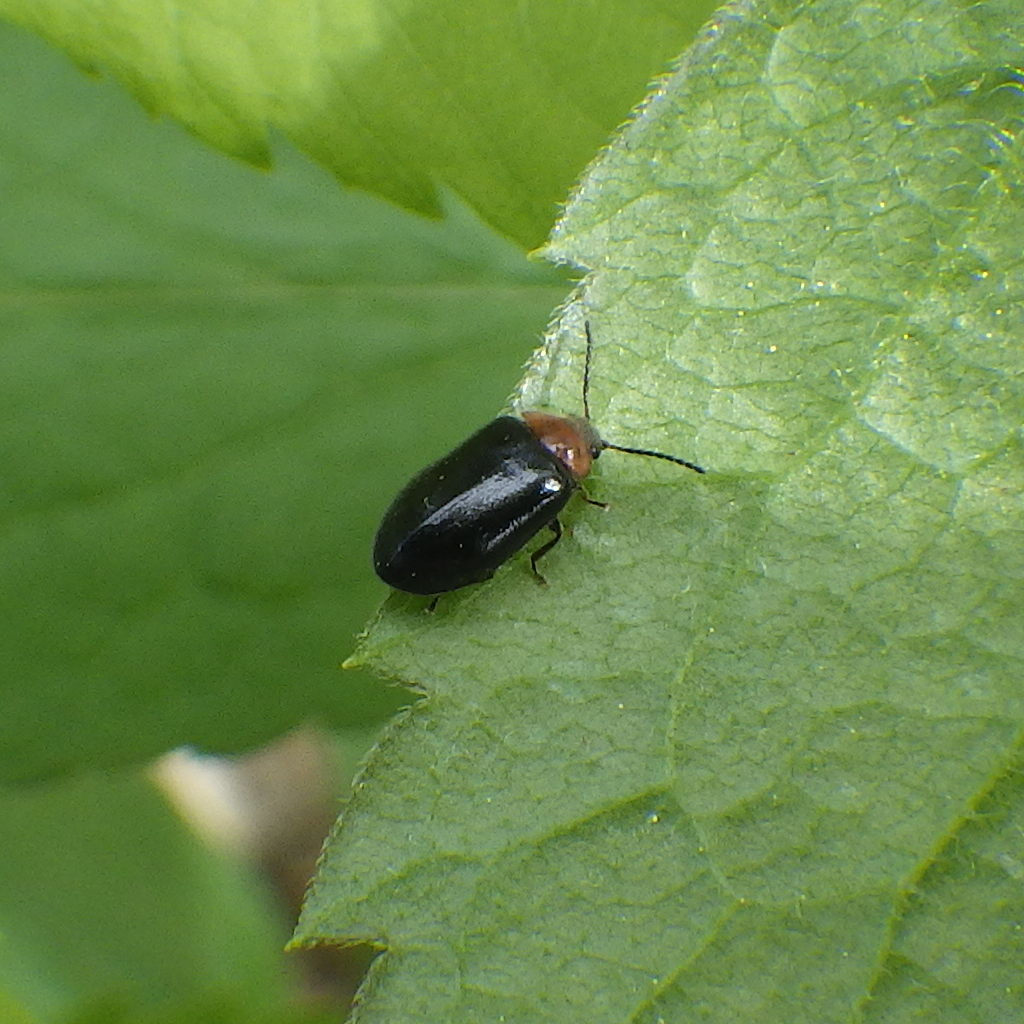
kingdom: Animalia
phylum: Arthropoda
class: Insecta
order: Coleoptera
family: Scirtidae
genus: Cyphon
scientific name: Cyphon collaris
